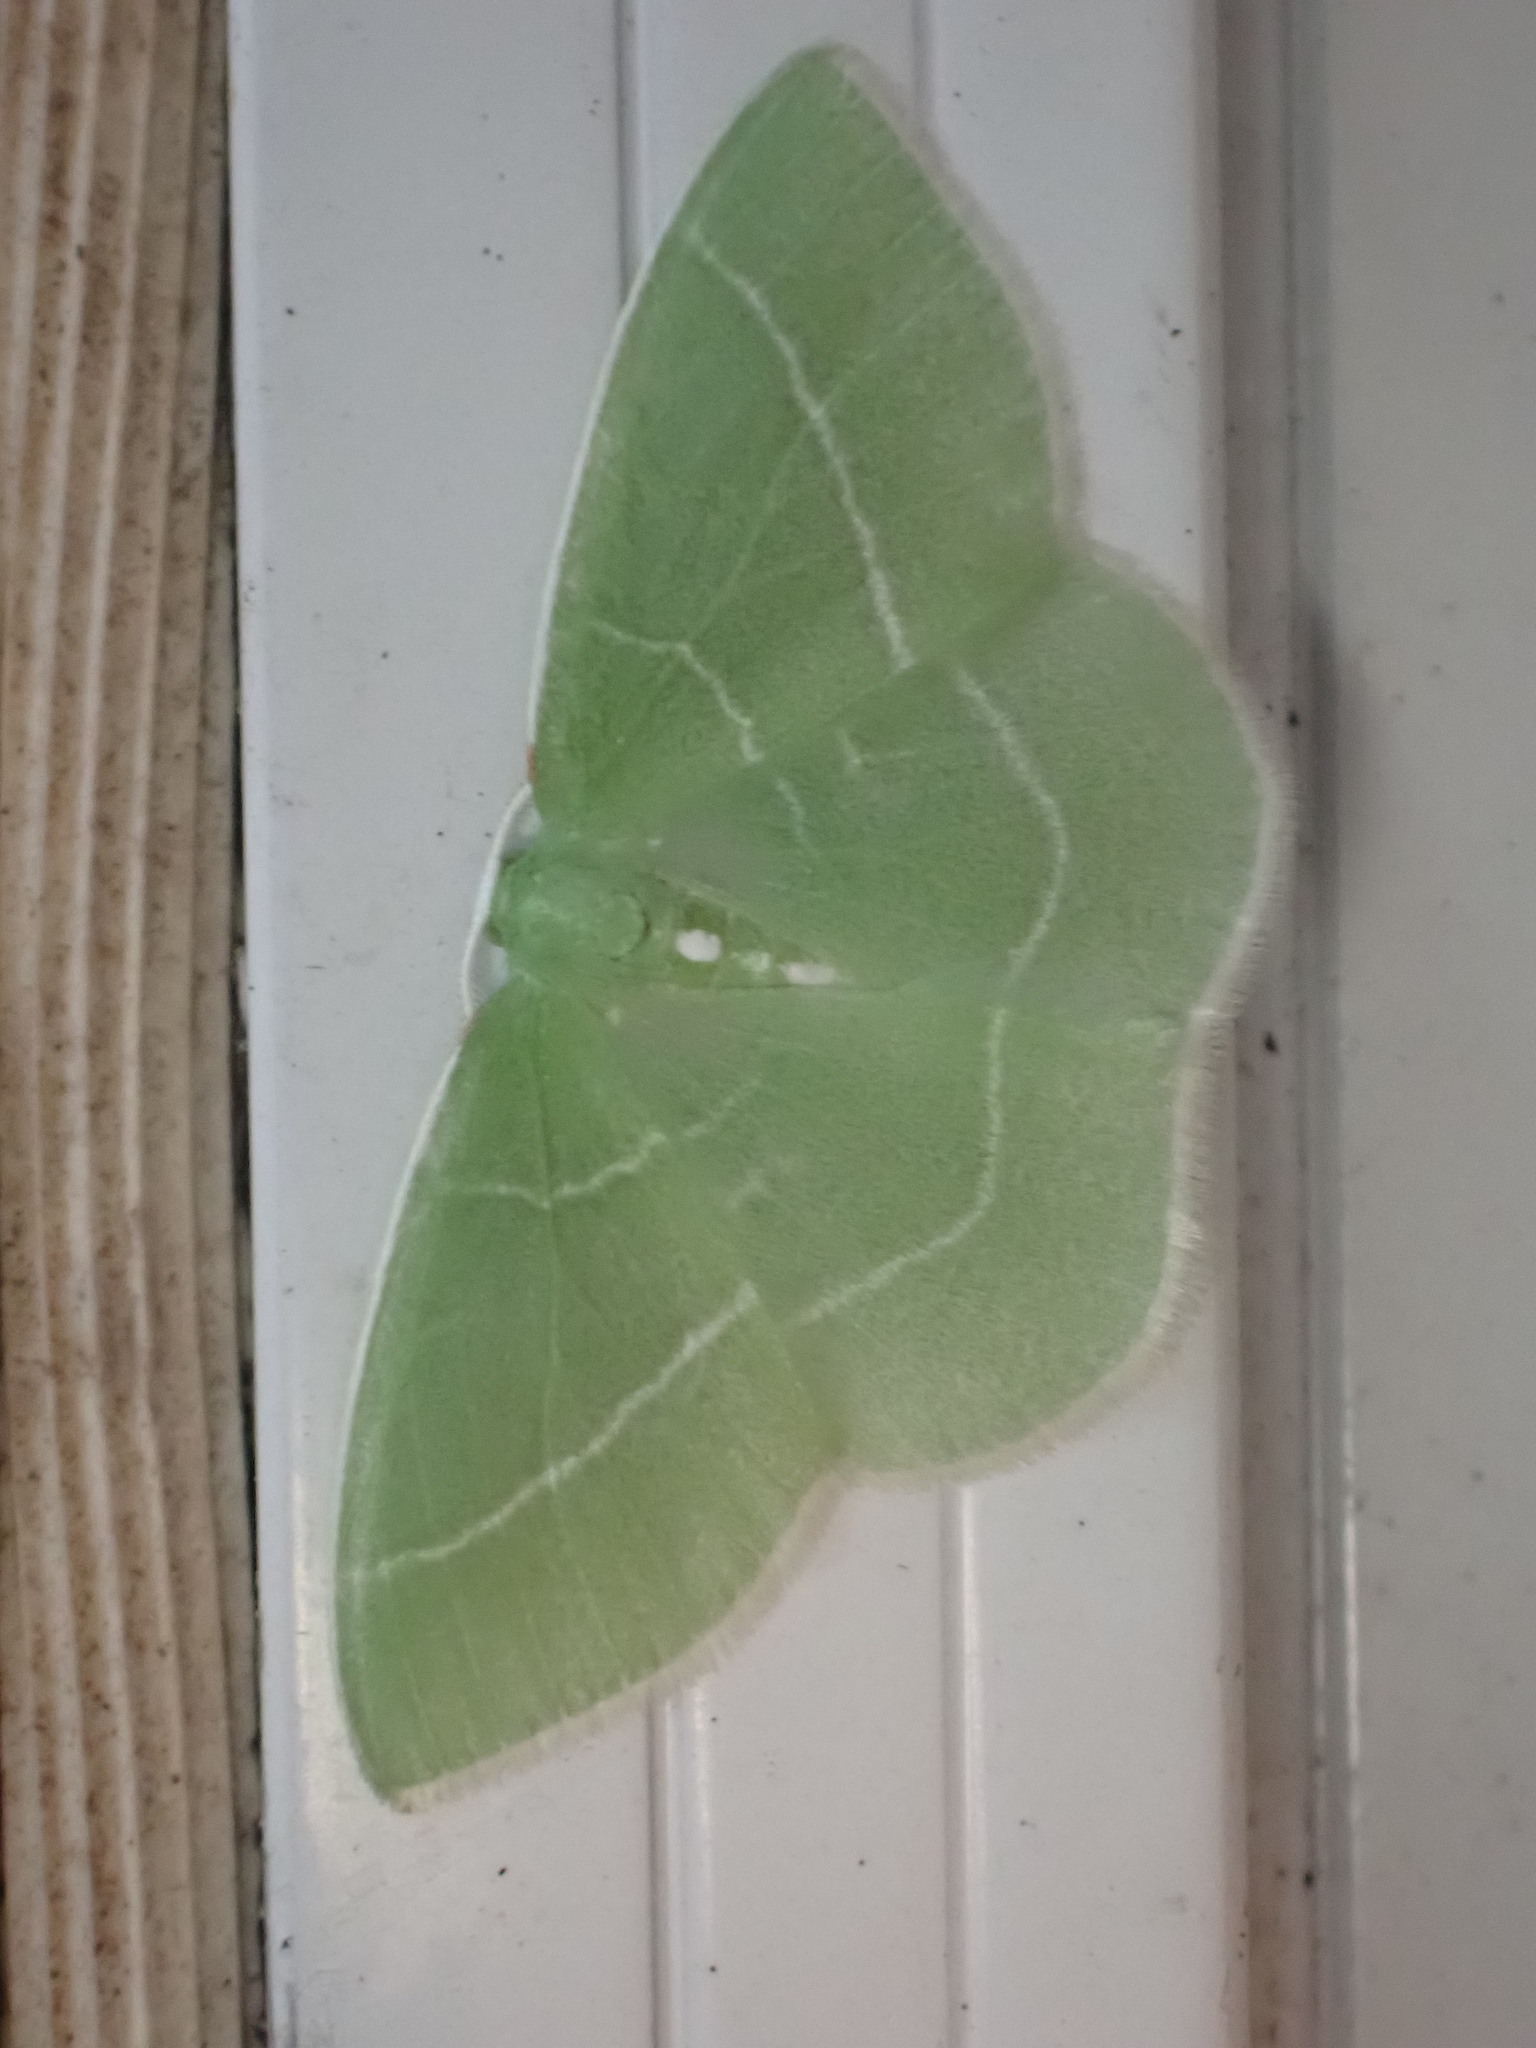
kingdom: Animalia
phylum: Arthropoda
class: Insecta
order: Lepidoptera
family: Geometridae
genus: Nemoria
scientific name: Nemoria mimosaria
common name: White-fringed emerald
